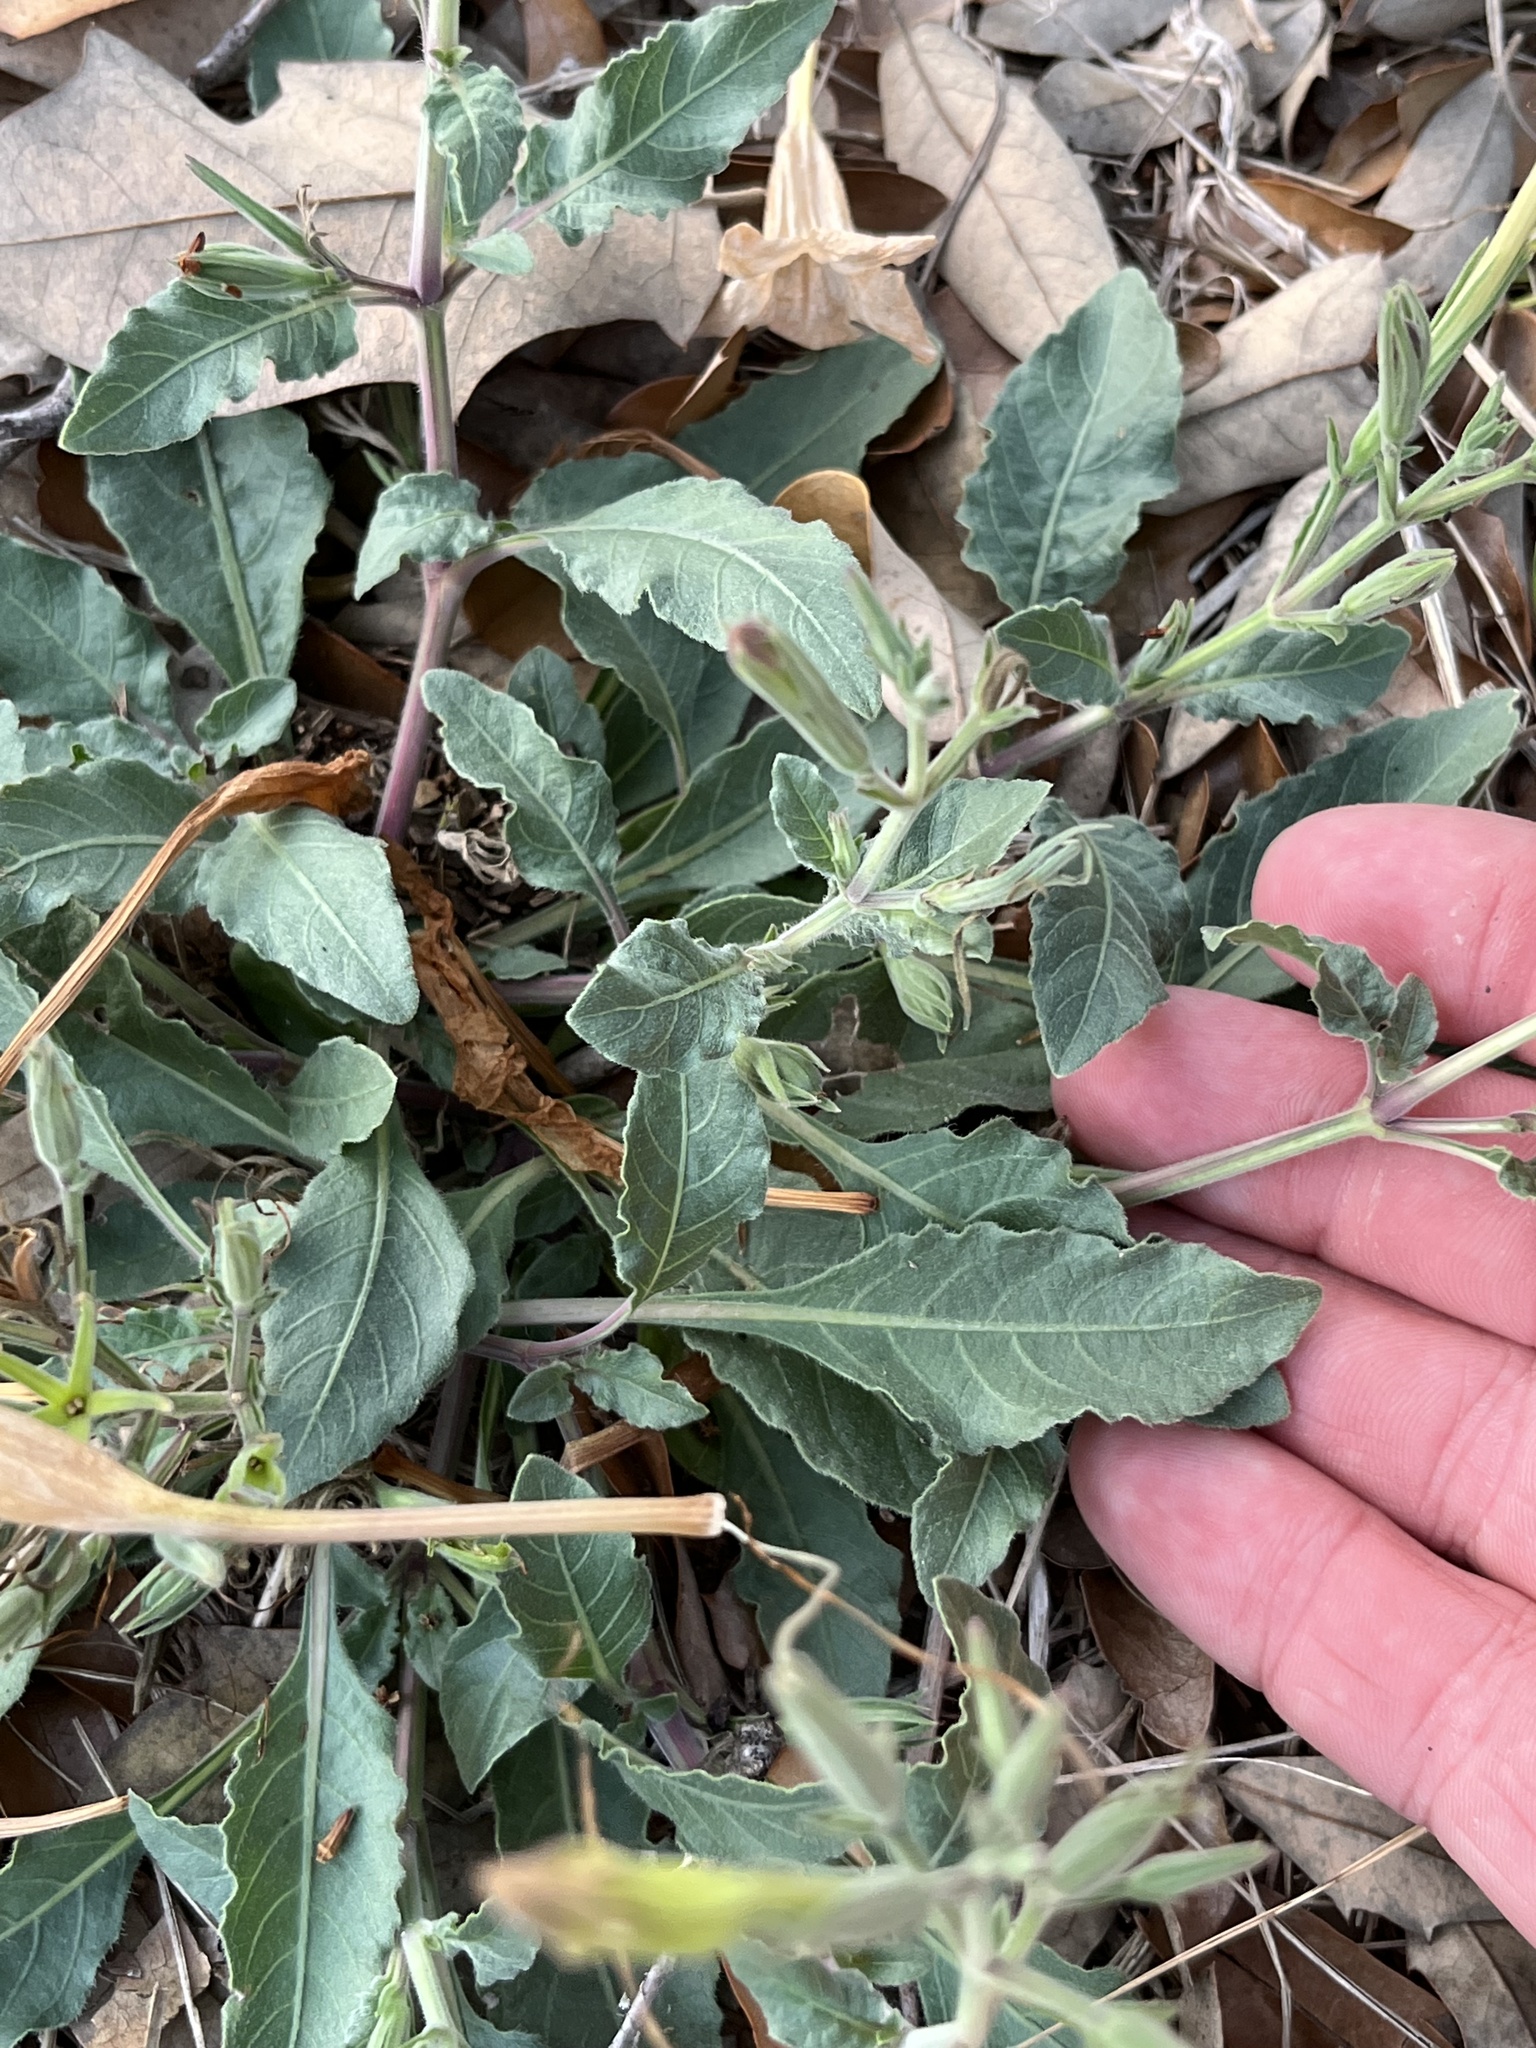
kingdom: Plantae
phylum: Tracheophyta
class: Magnoliopsida
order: Lamiales
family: Acanthaceae
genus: Ruellia
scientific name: Ruellia metziae
